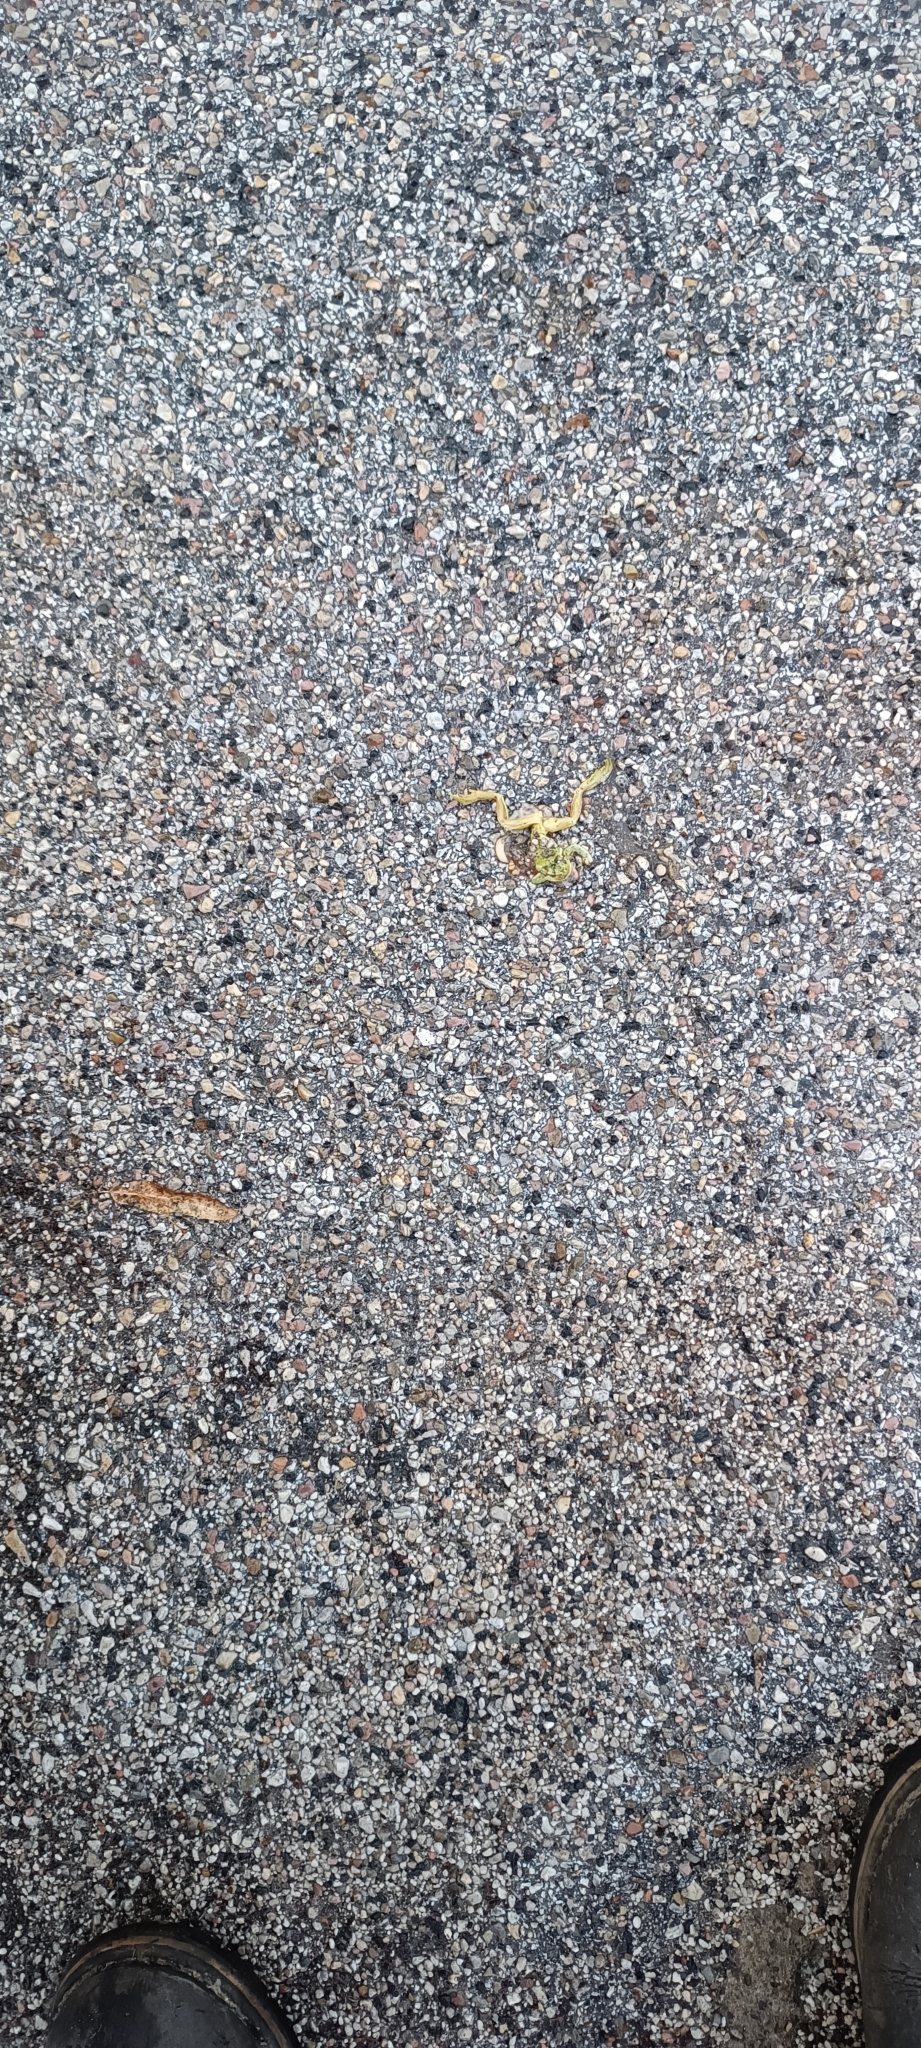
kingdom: Animalia
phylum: Chordata
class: Amphibia
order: Anura
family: Hylidae
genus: Hyla
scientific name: Hyla intermedia
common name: Italian tree frog
